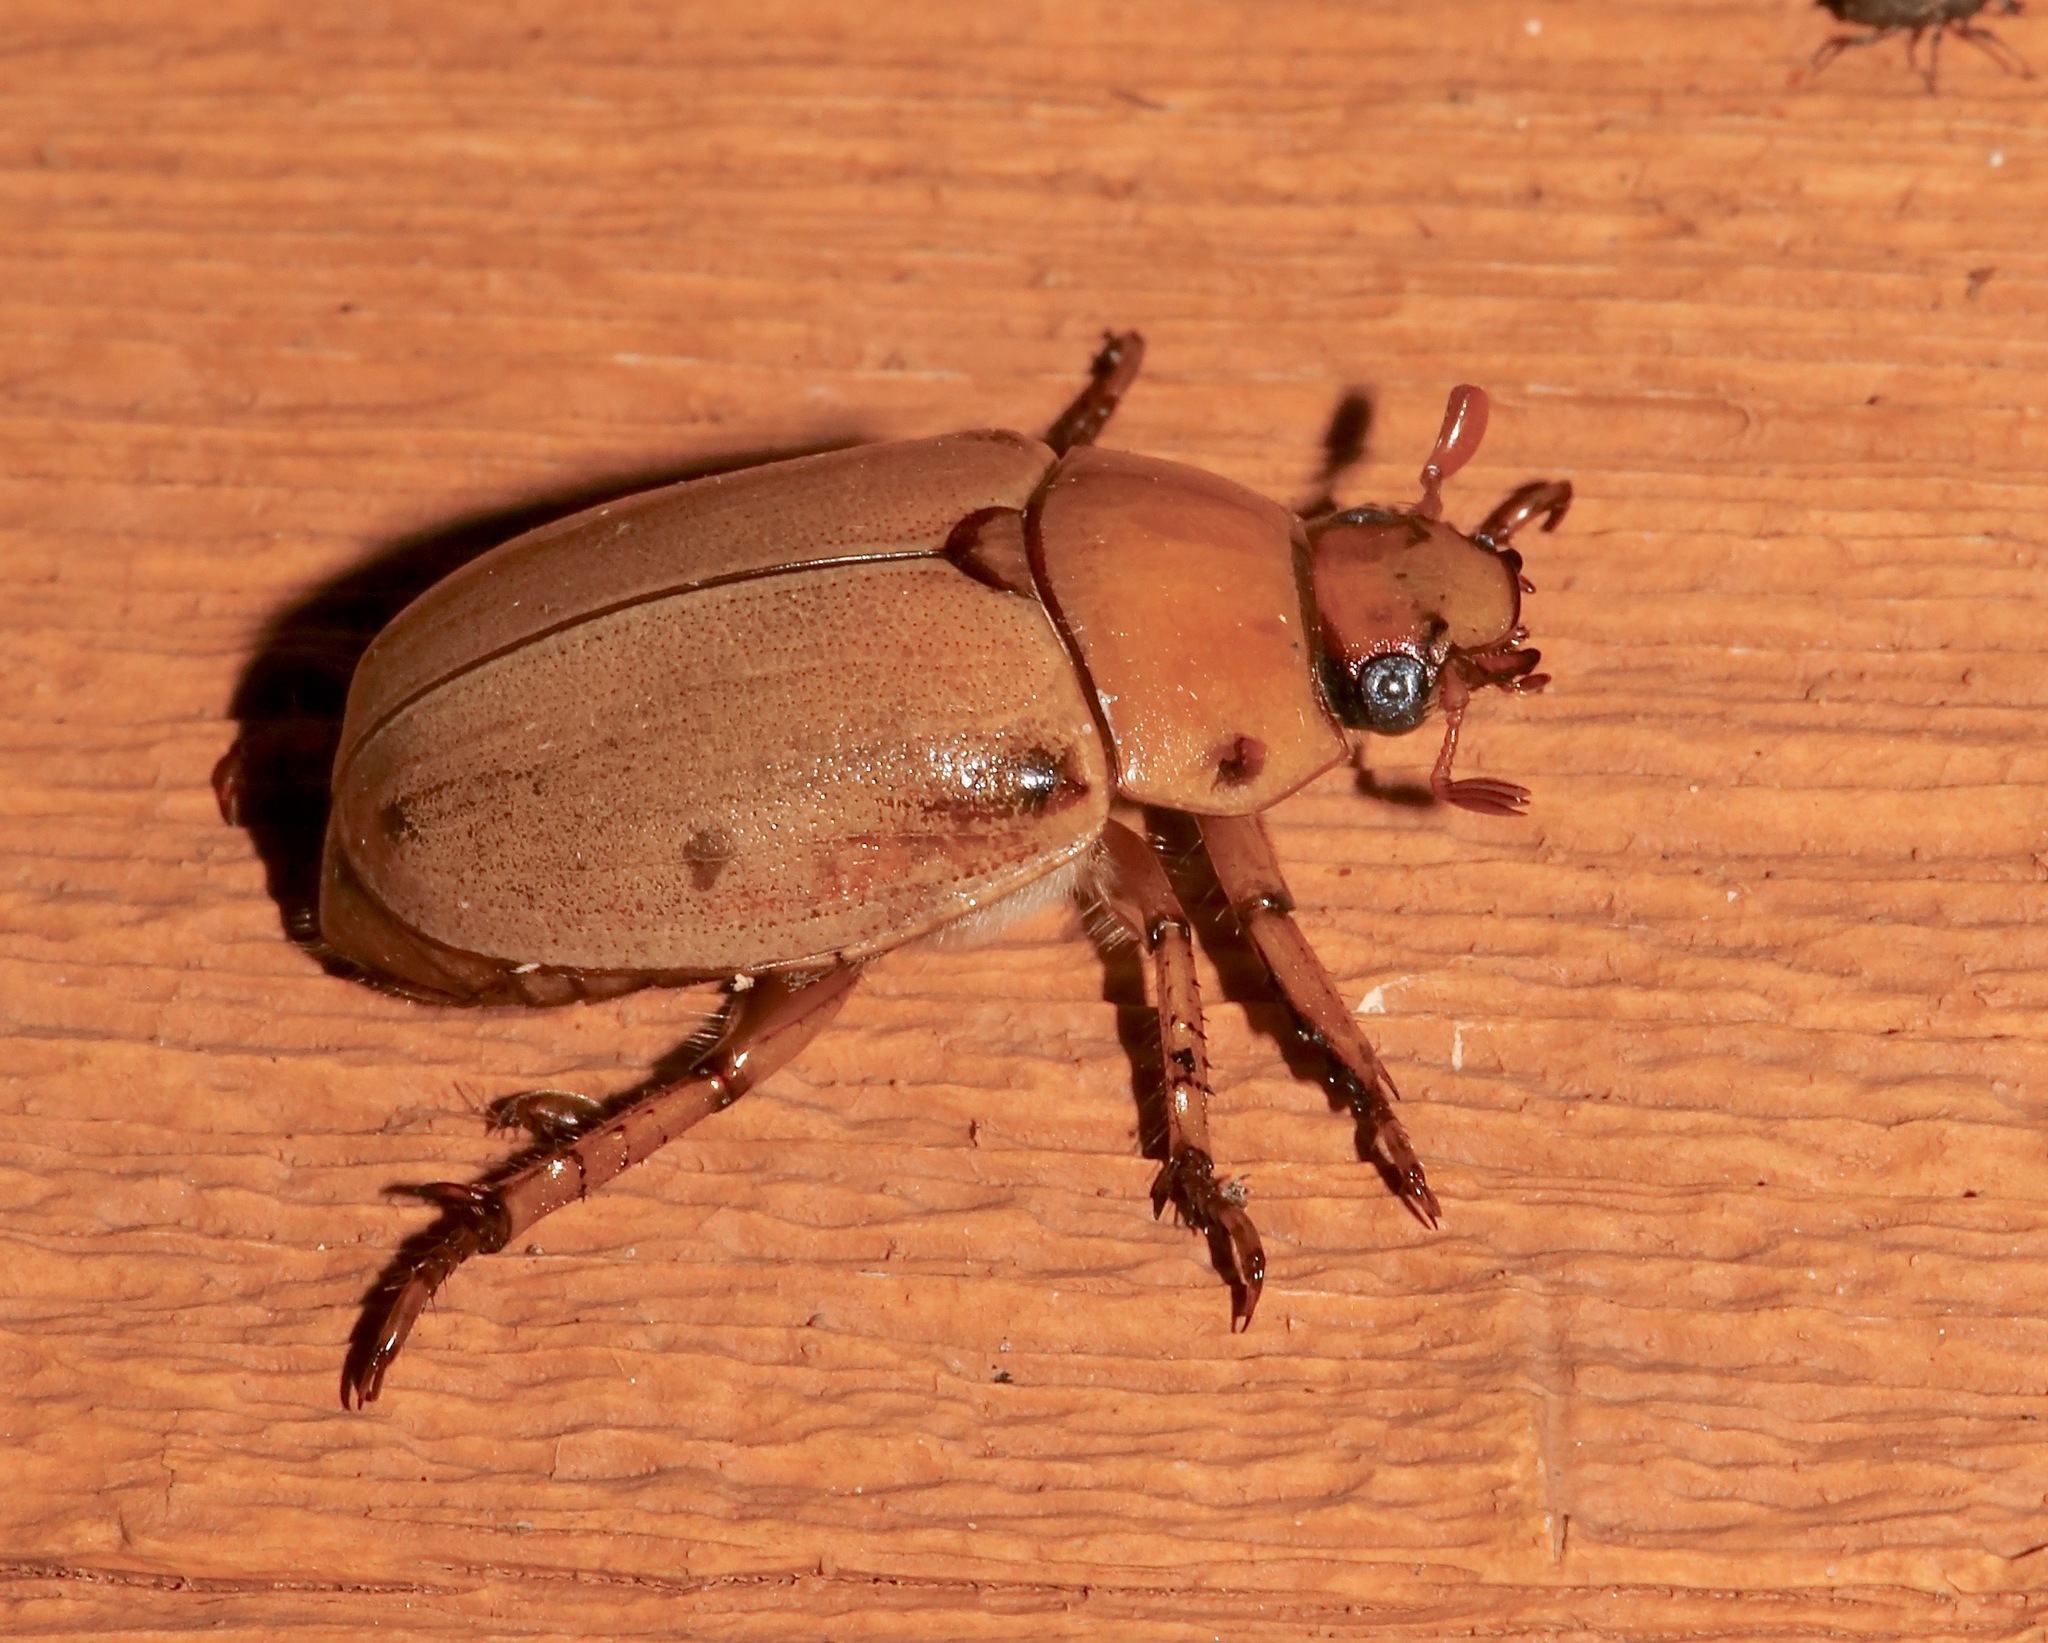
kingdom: Animalia
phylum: Arthropoda
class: Insecta
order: Coleoptera
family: Scarabaeidae
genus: Pelidnota
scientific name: Pelidnota punctata
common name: Grapevine beetle
